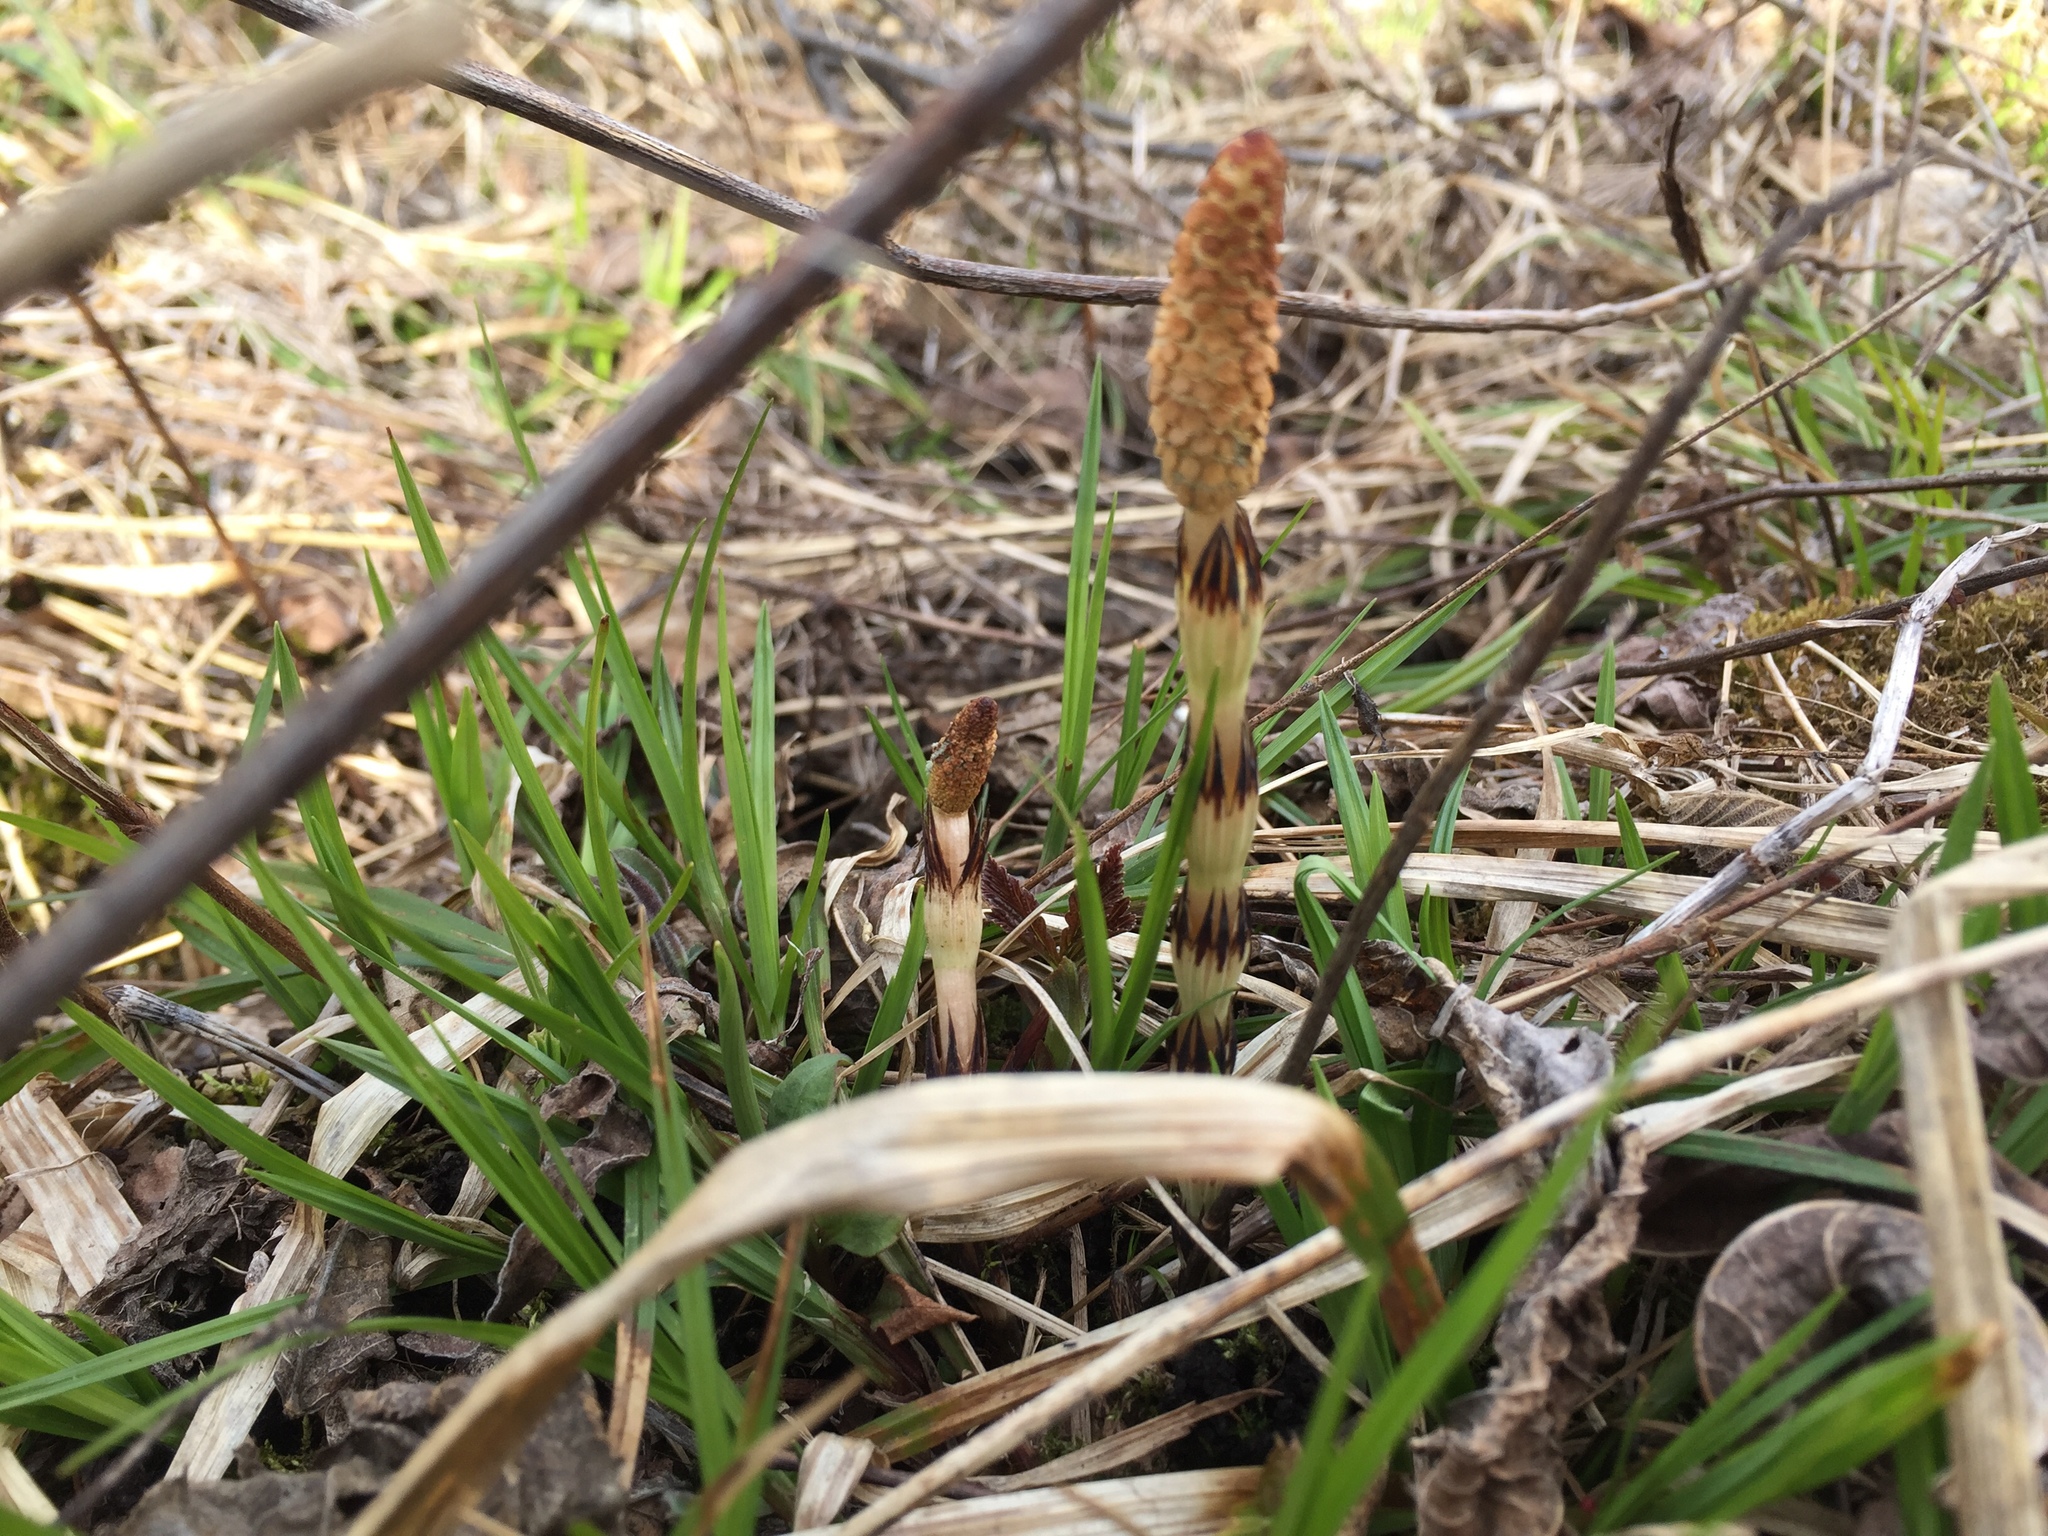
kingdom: Plantae
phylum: Tracheophyta
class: Polypodiopsida
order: Equisetales
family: Equisetaceae
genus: Equisetum
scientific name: Equisetum arvense
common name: Field horsetail
